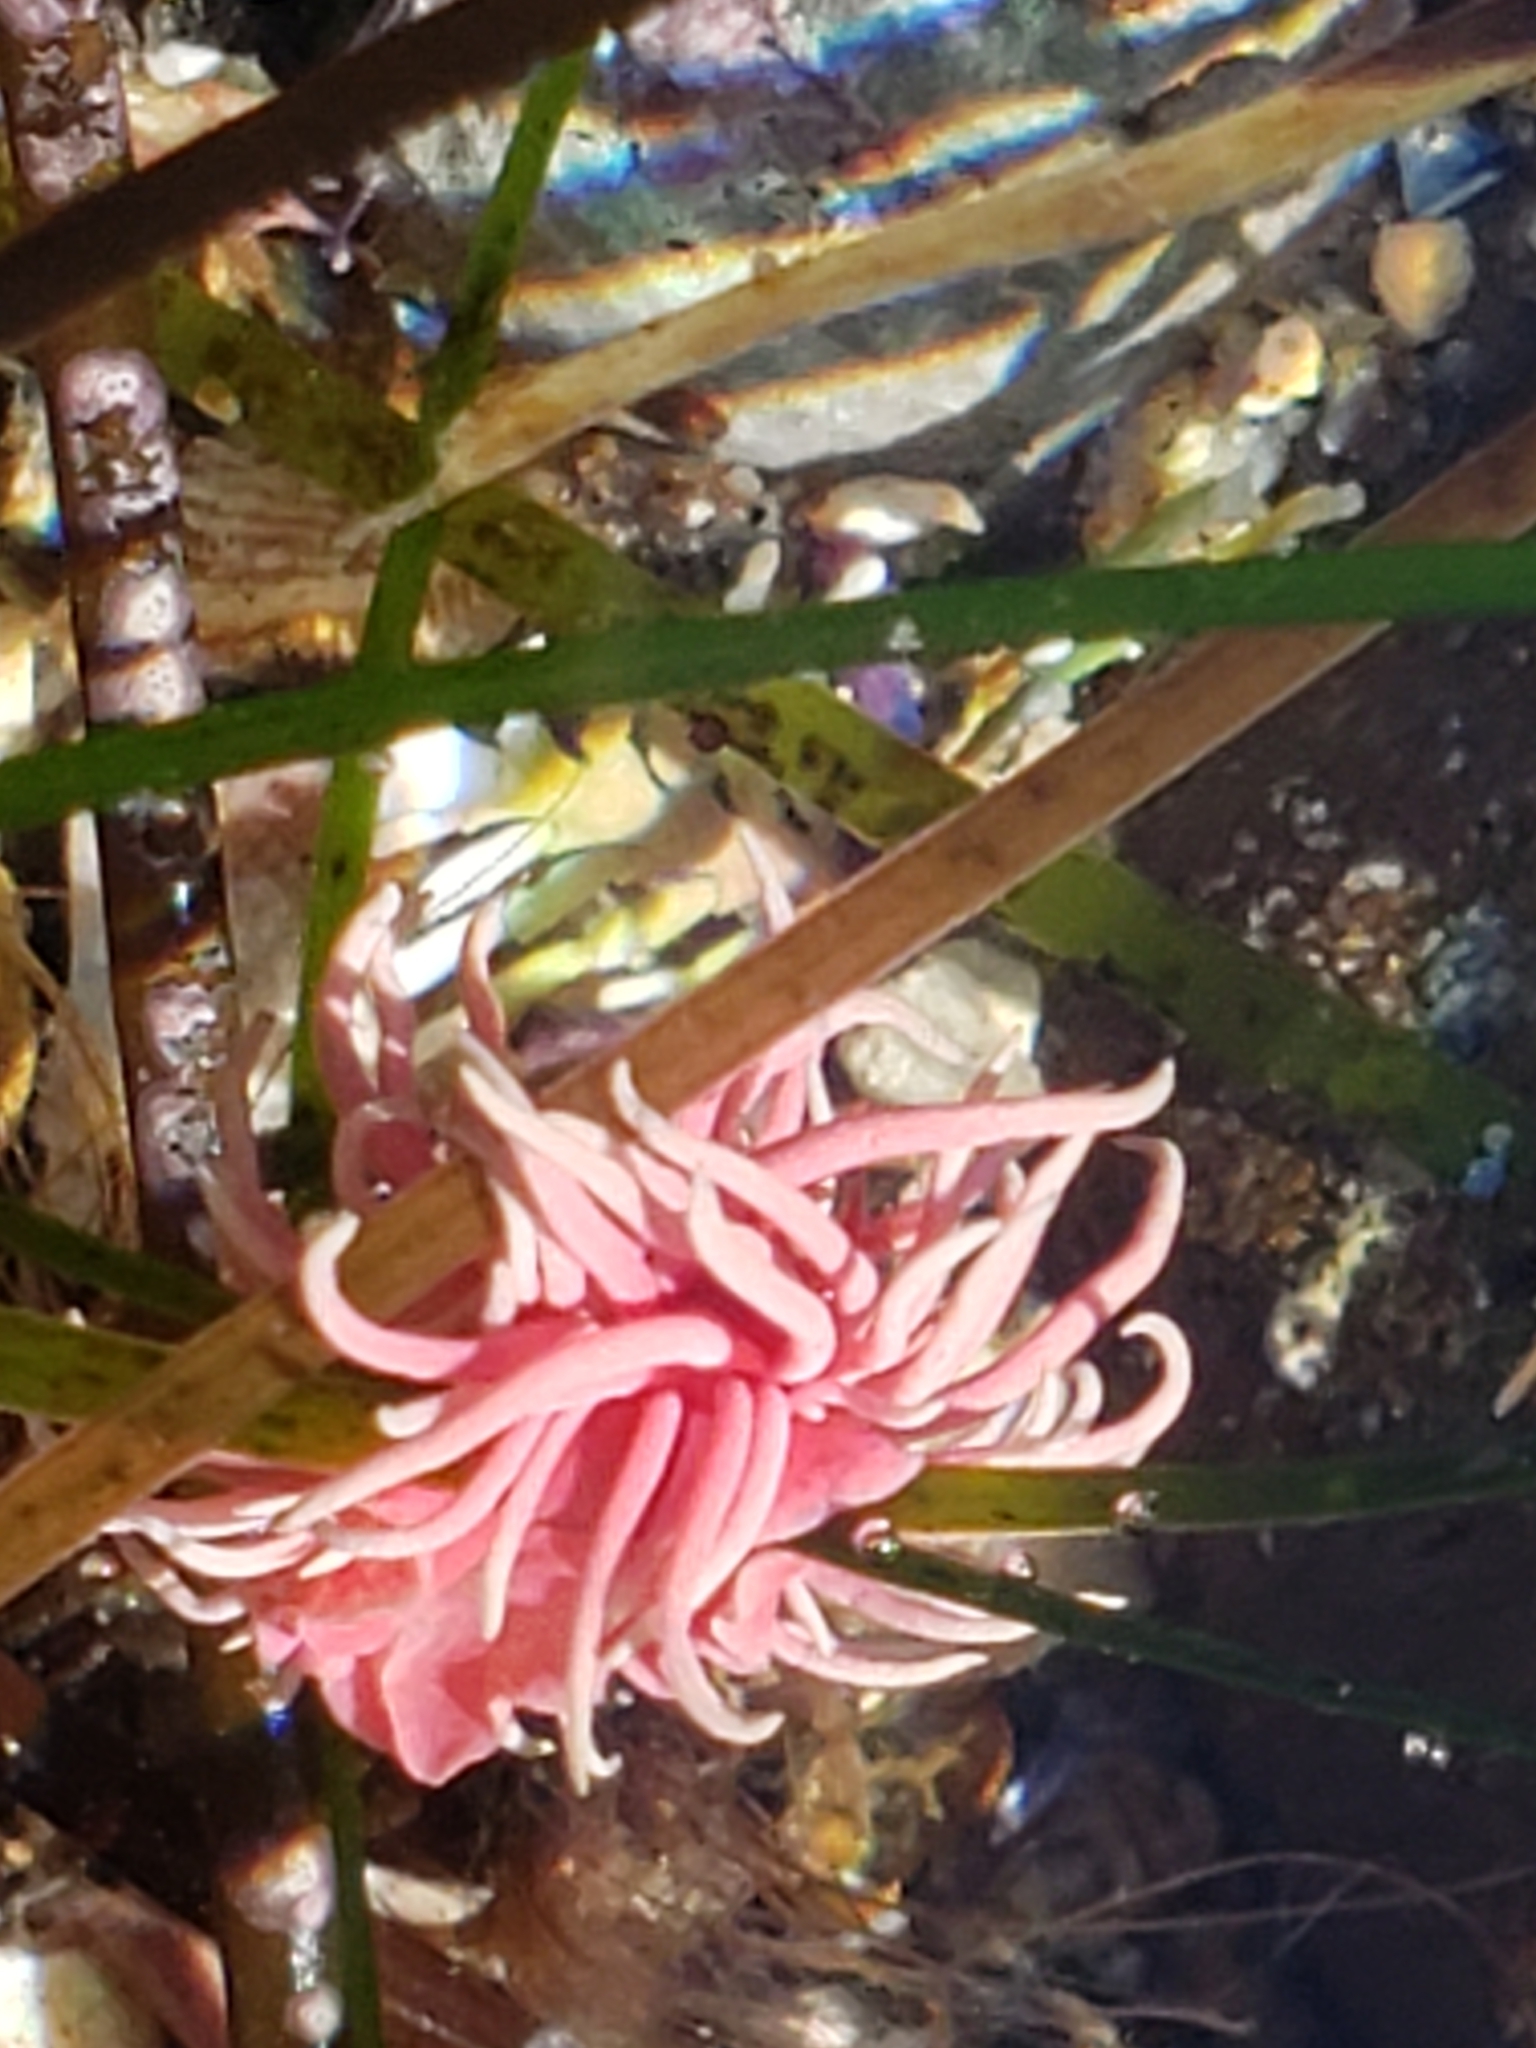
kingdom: Animalia
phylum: Mollusca
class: Gastropoda
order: Nudibranchia
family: Goniodorididae
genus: Okenia
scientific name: Okenia
